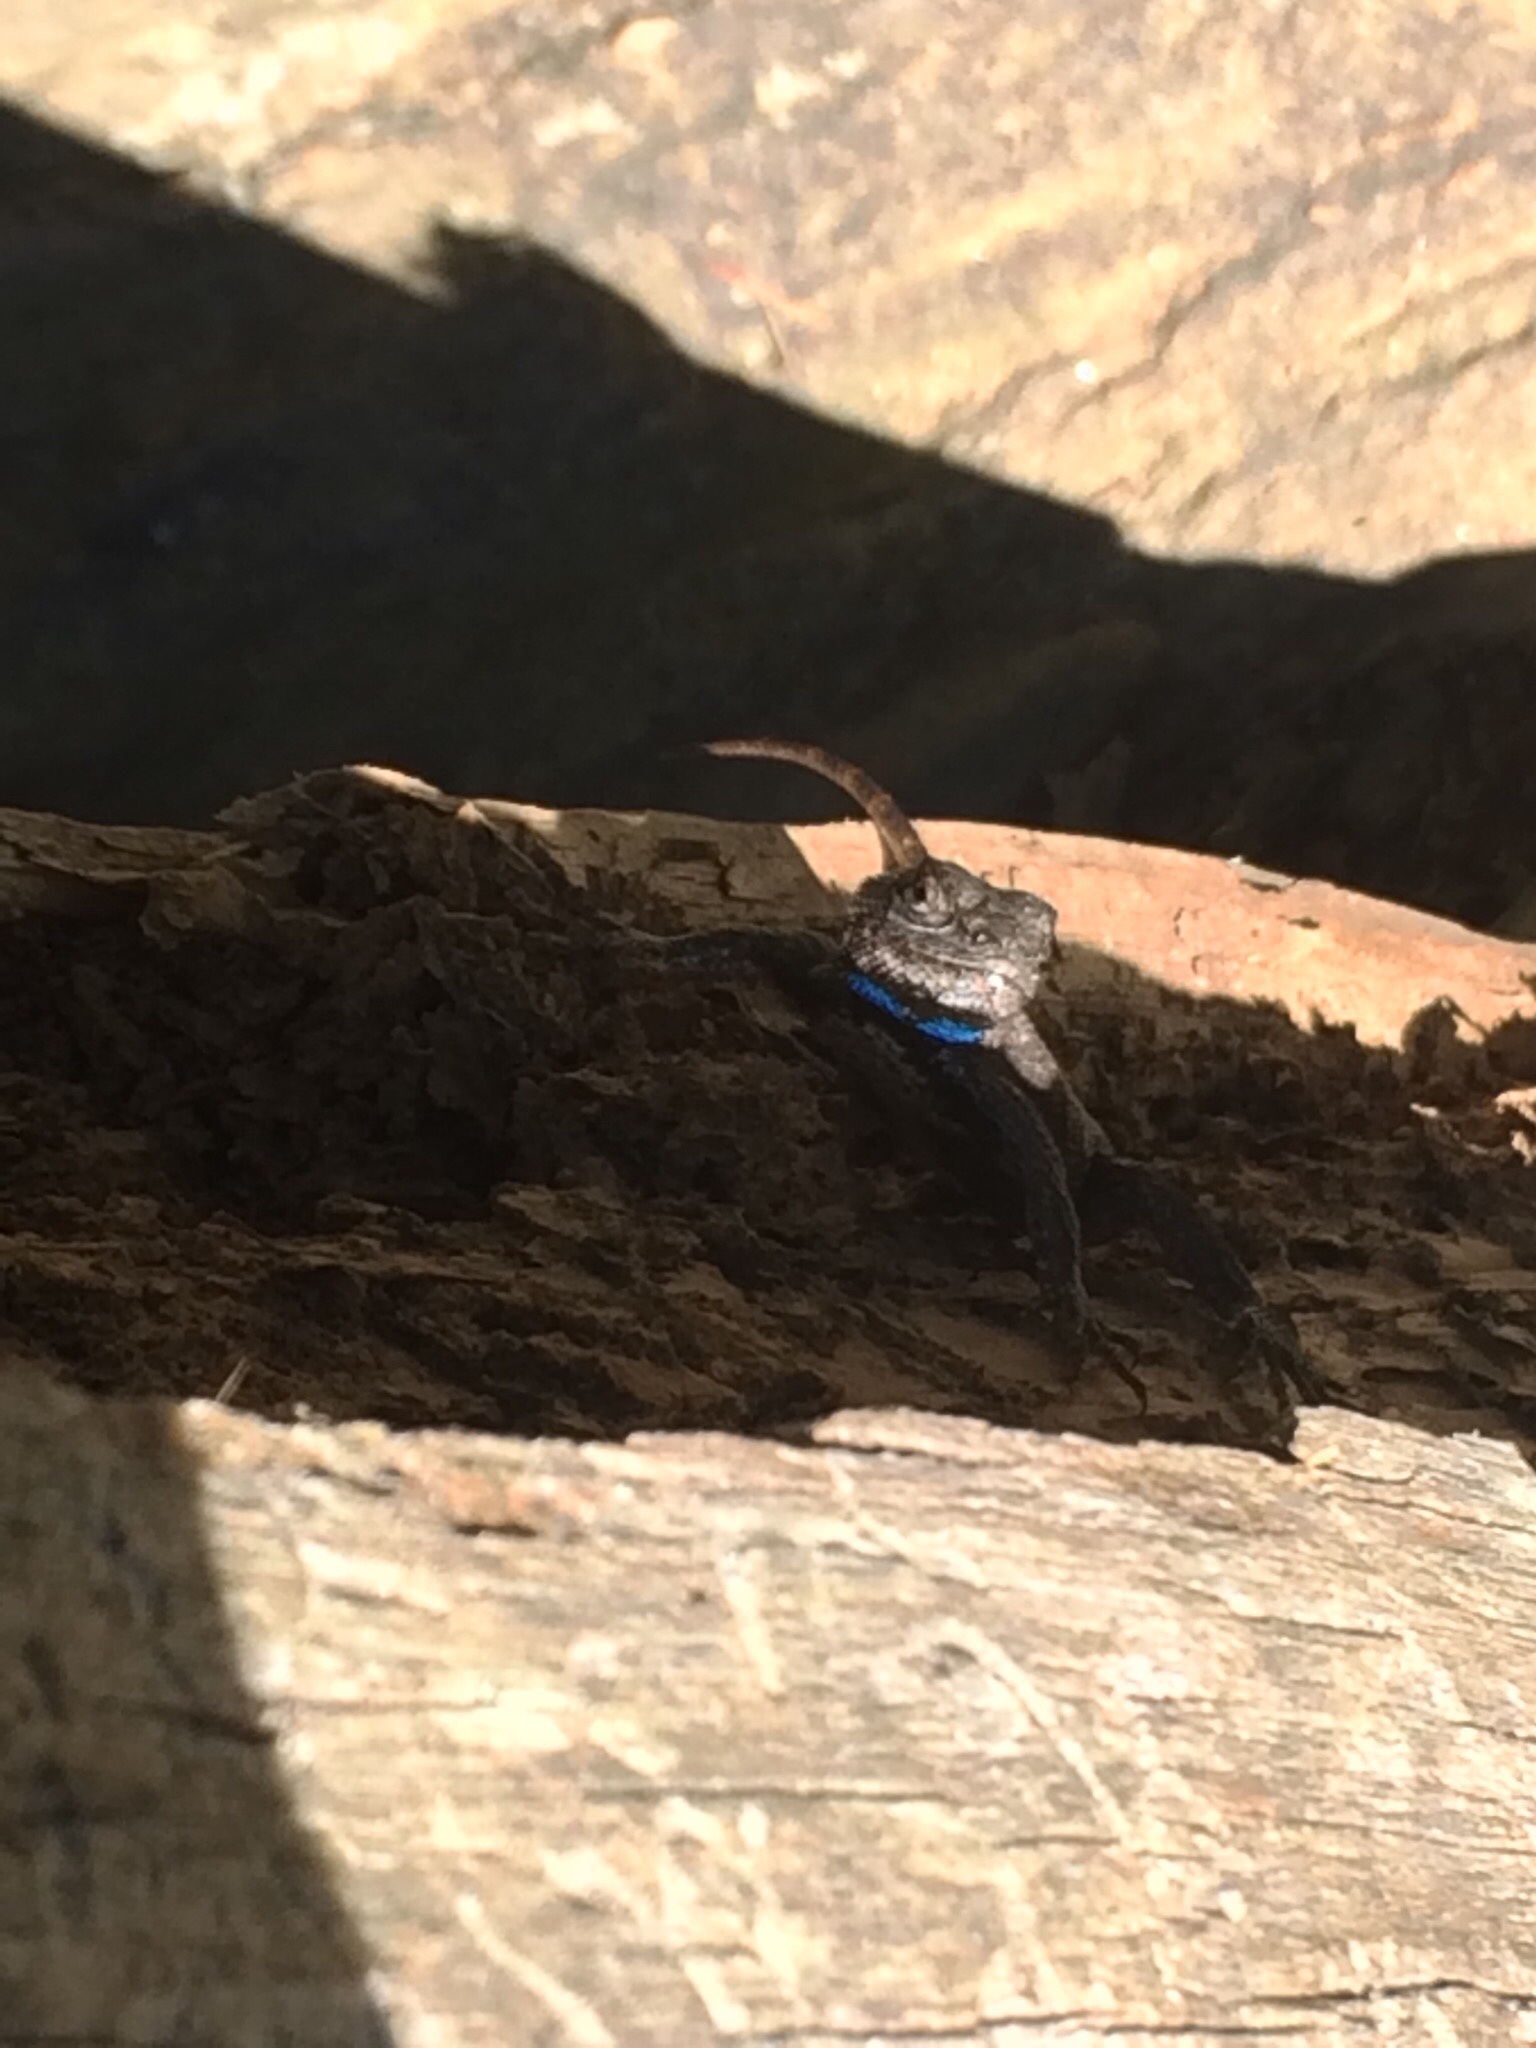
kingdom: Animalia
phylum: Chordata
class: Squamata
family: Phrynosomatidae
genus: Sceloporus
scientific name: Sceloporus undulatus
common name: Eastern fence lizard
